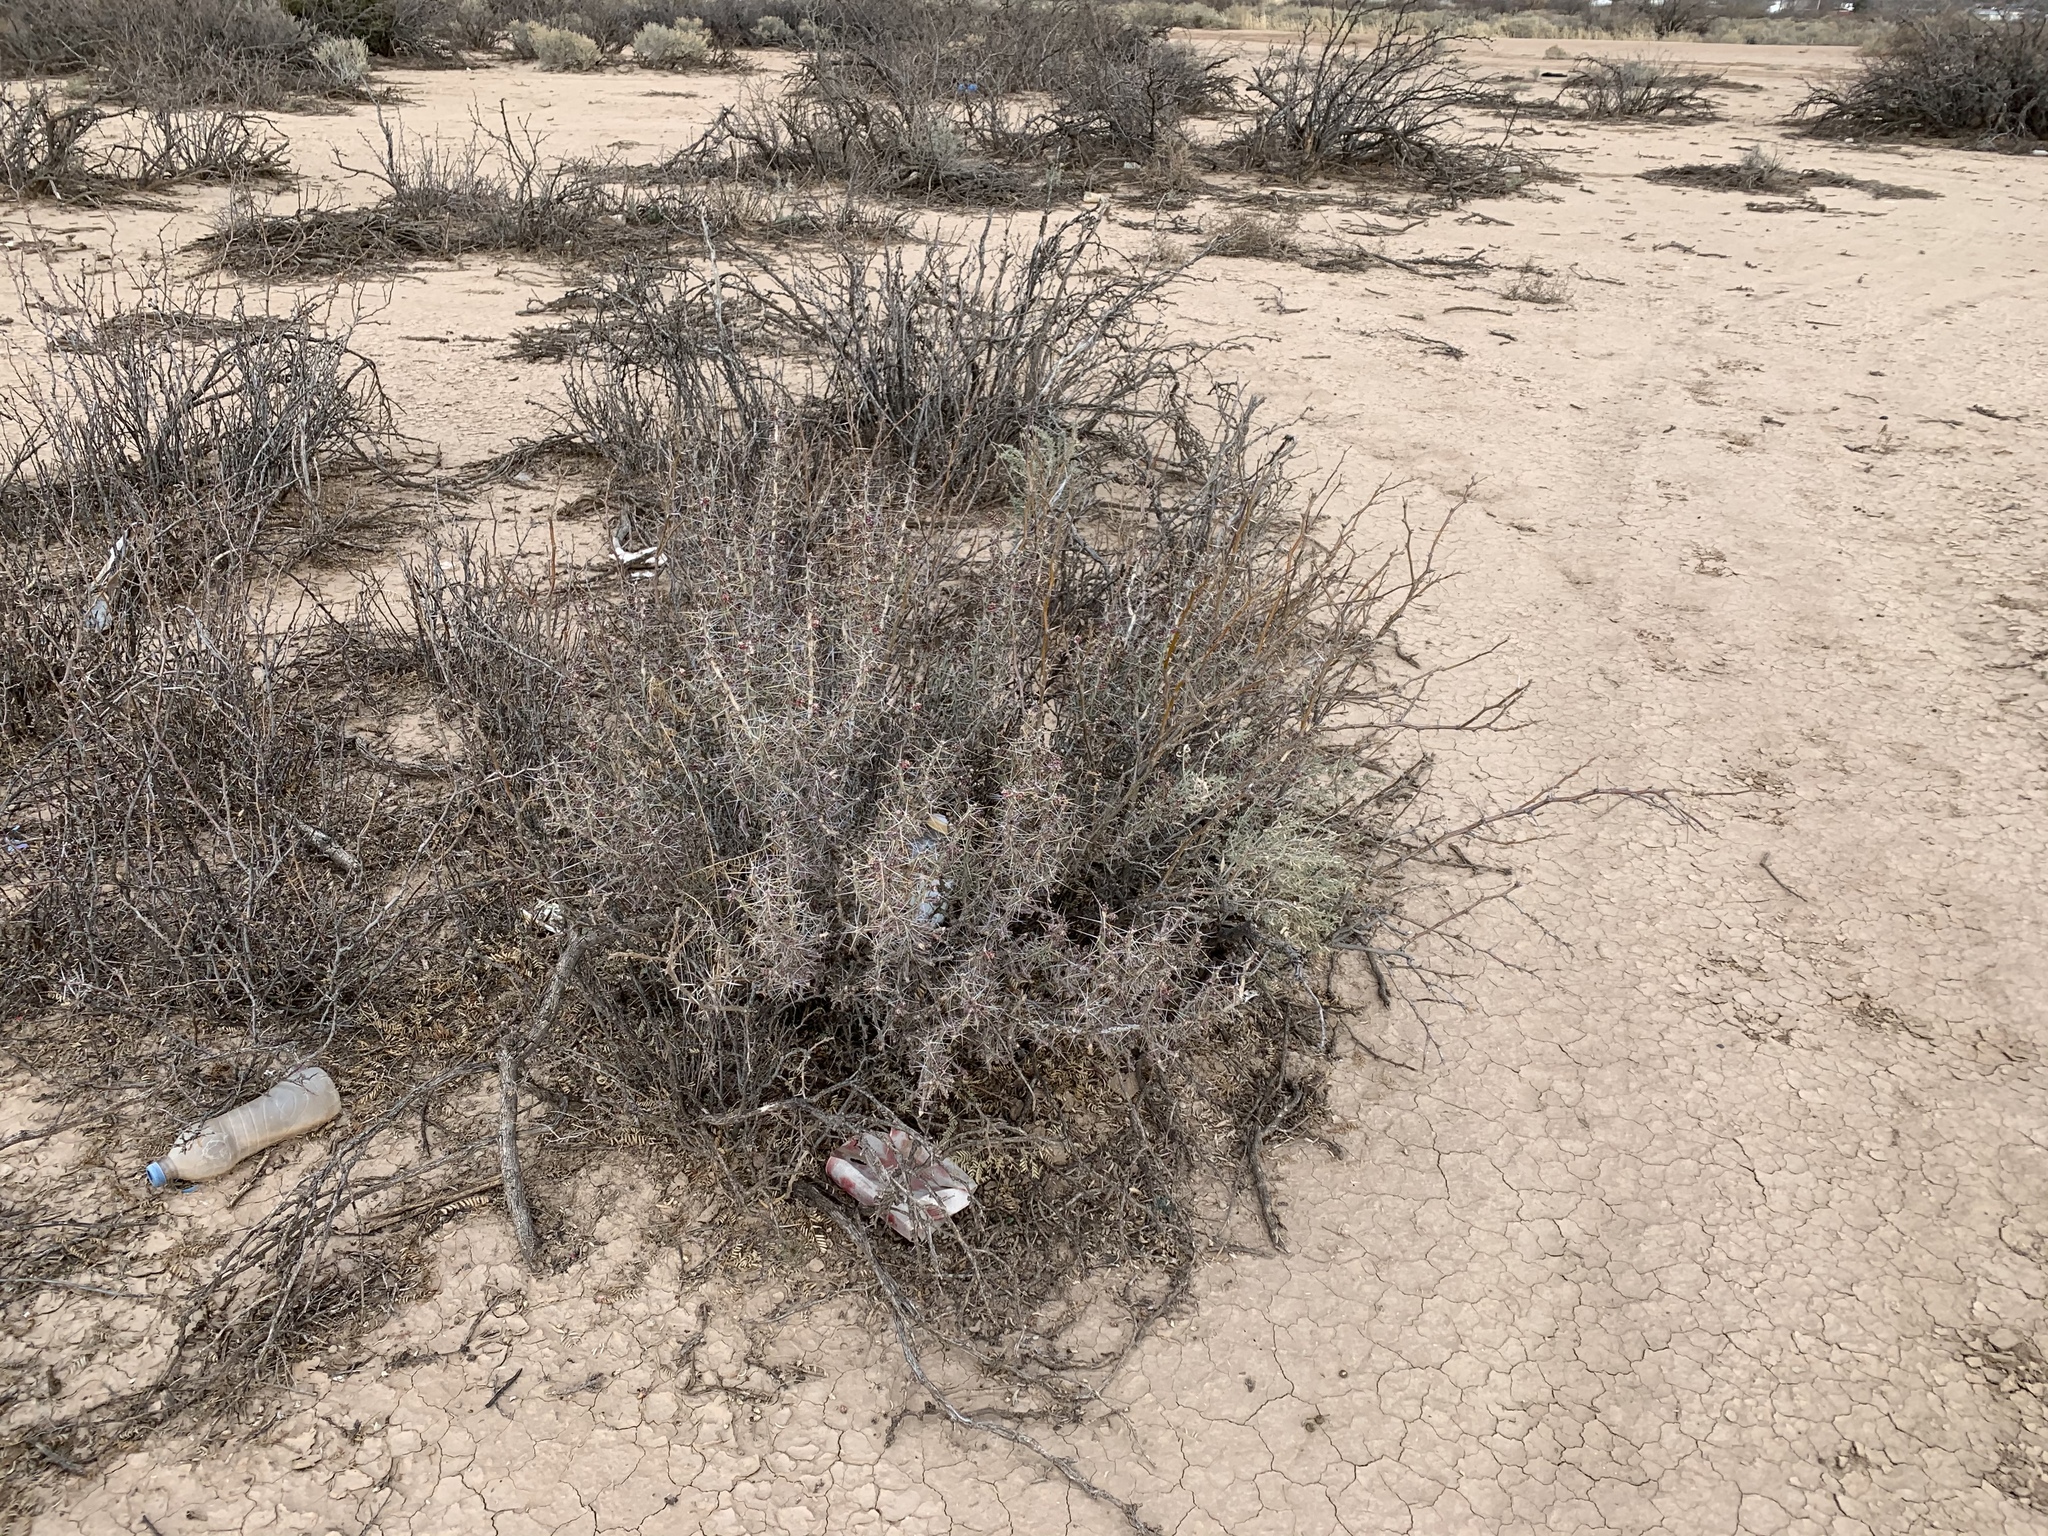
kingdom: Plantae
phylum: Tracheophyta
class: Magnoliopsida
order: Caryophyllales
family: Cactaceae
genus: Cylindropuntia
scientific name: Cylindropuntia leptocaulis
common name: Christmas cactus
